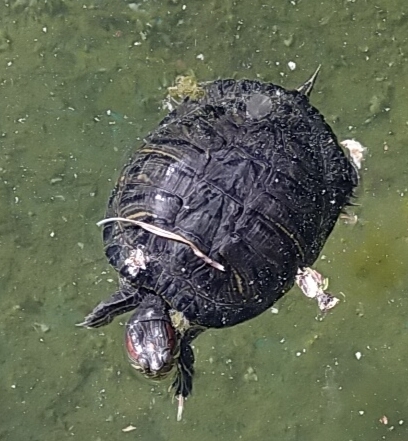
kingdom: Animalia
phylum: Chordata
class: Testudines
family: Emydidae
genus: Trachemys
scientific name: Trachemys scripta
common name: Slider
